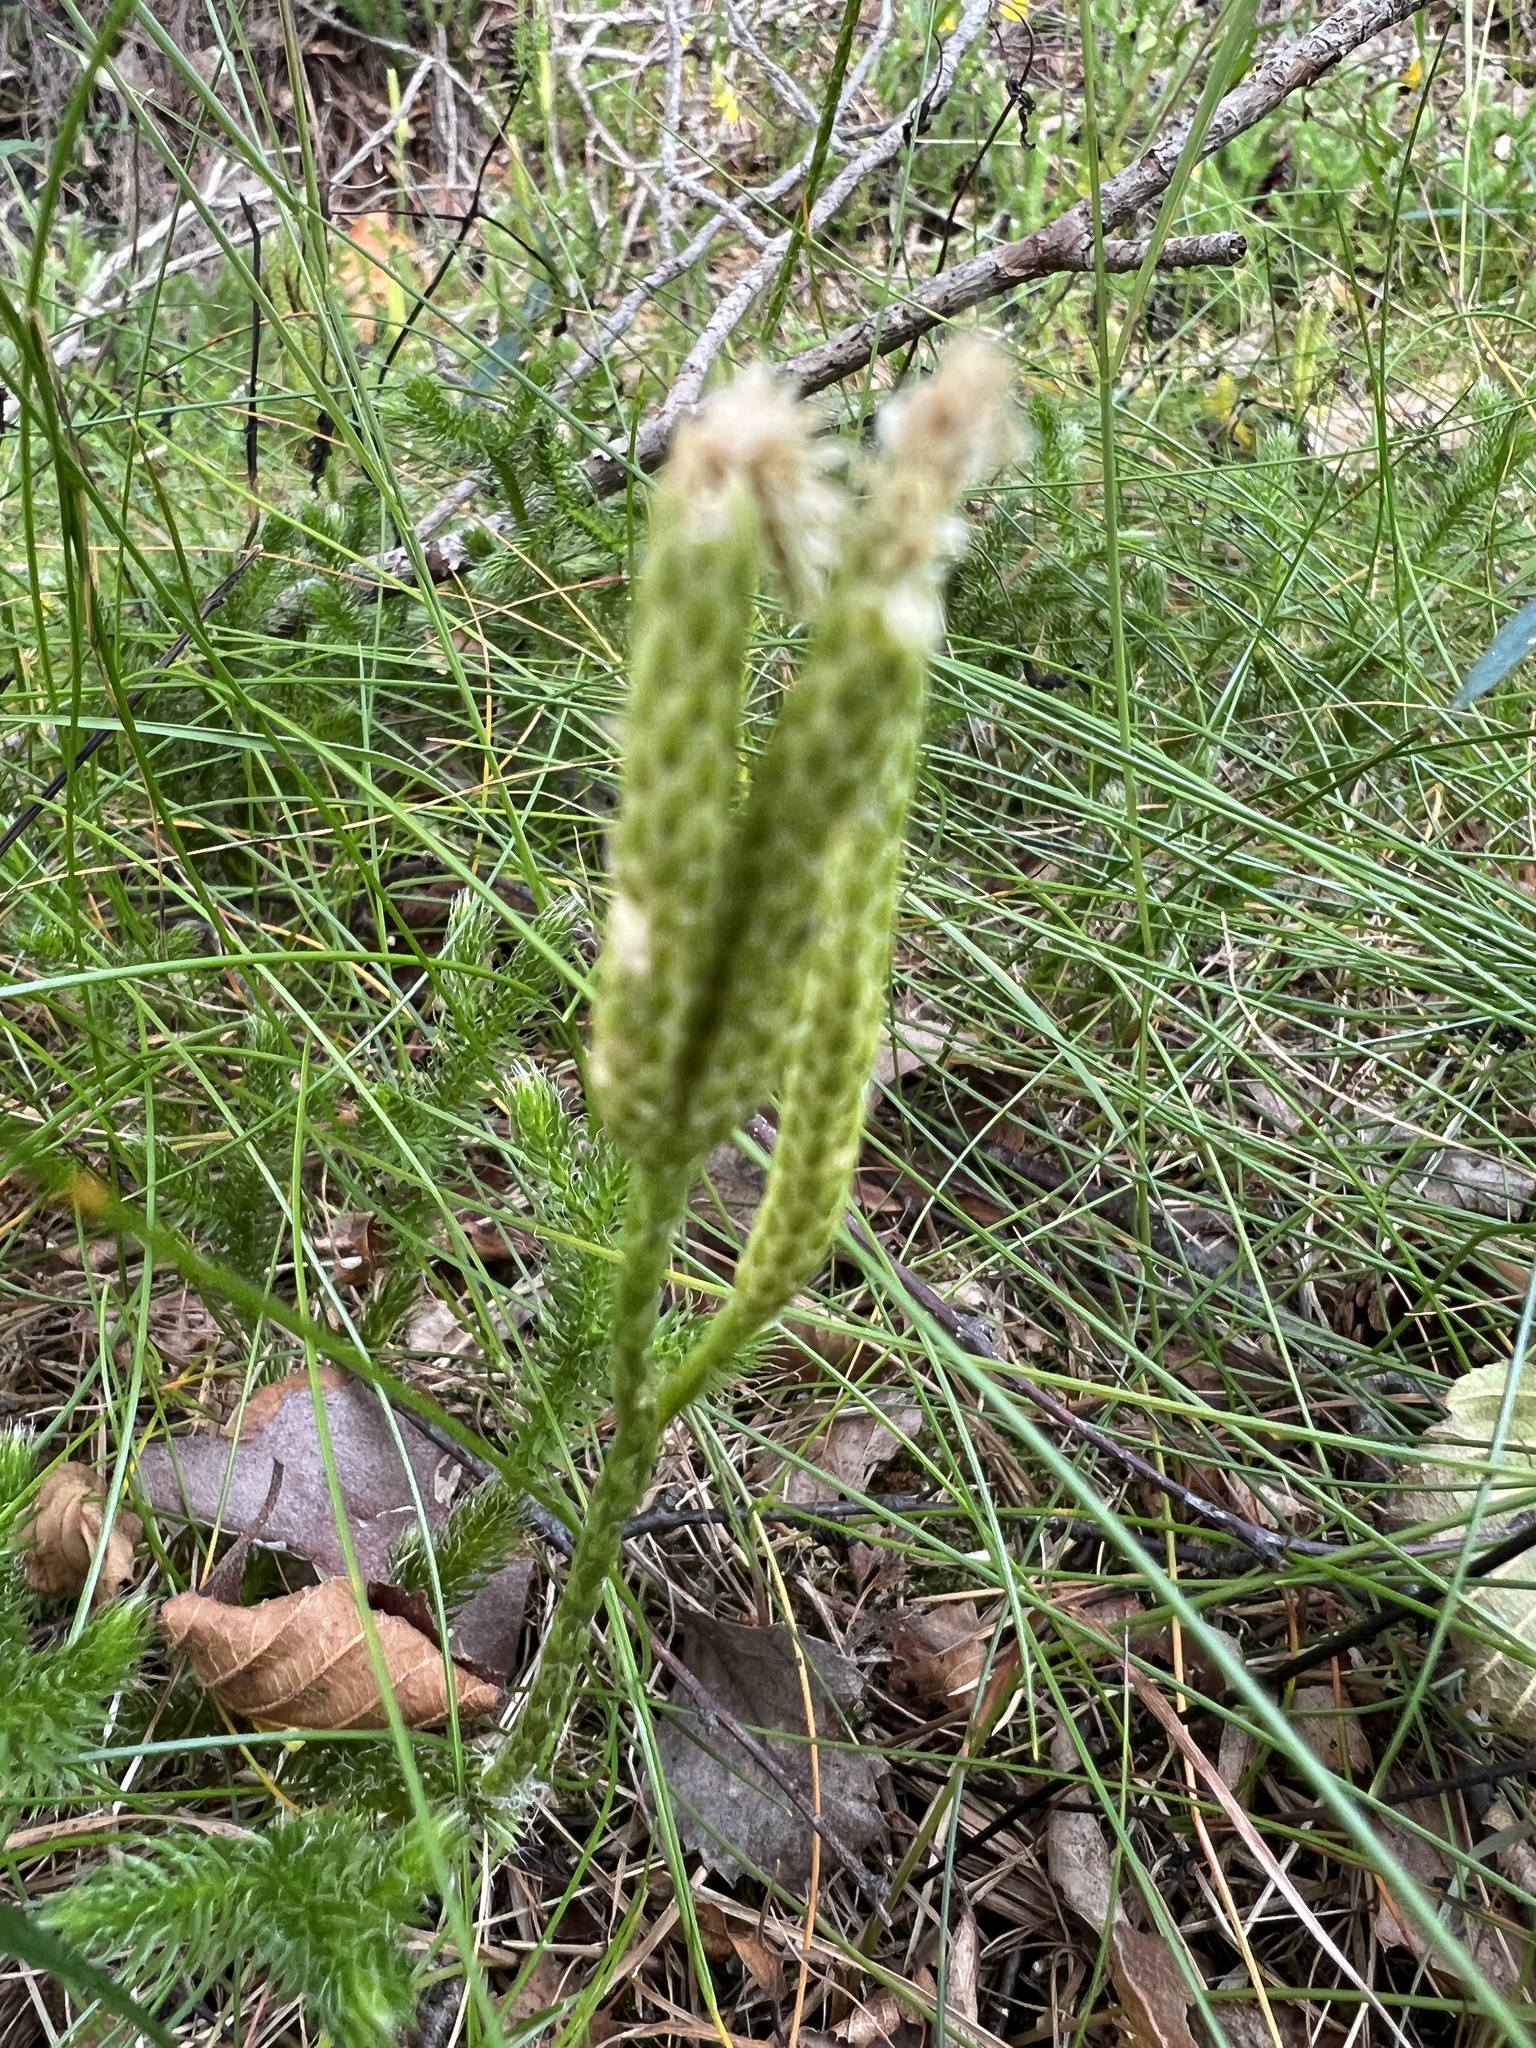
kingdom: Plantae
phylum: Tracheophyta
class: Lycopodiopsida
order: Lycopodiales
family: Lycopodiaceae
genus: Lycopodium
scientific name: Lycopodium clavatum
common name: Stag's-horn clubmoss
